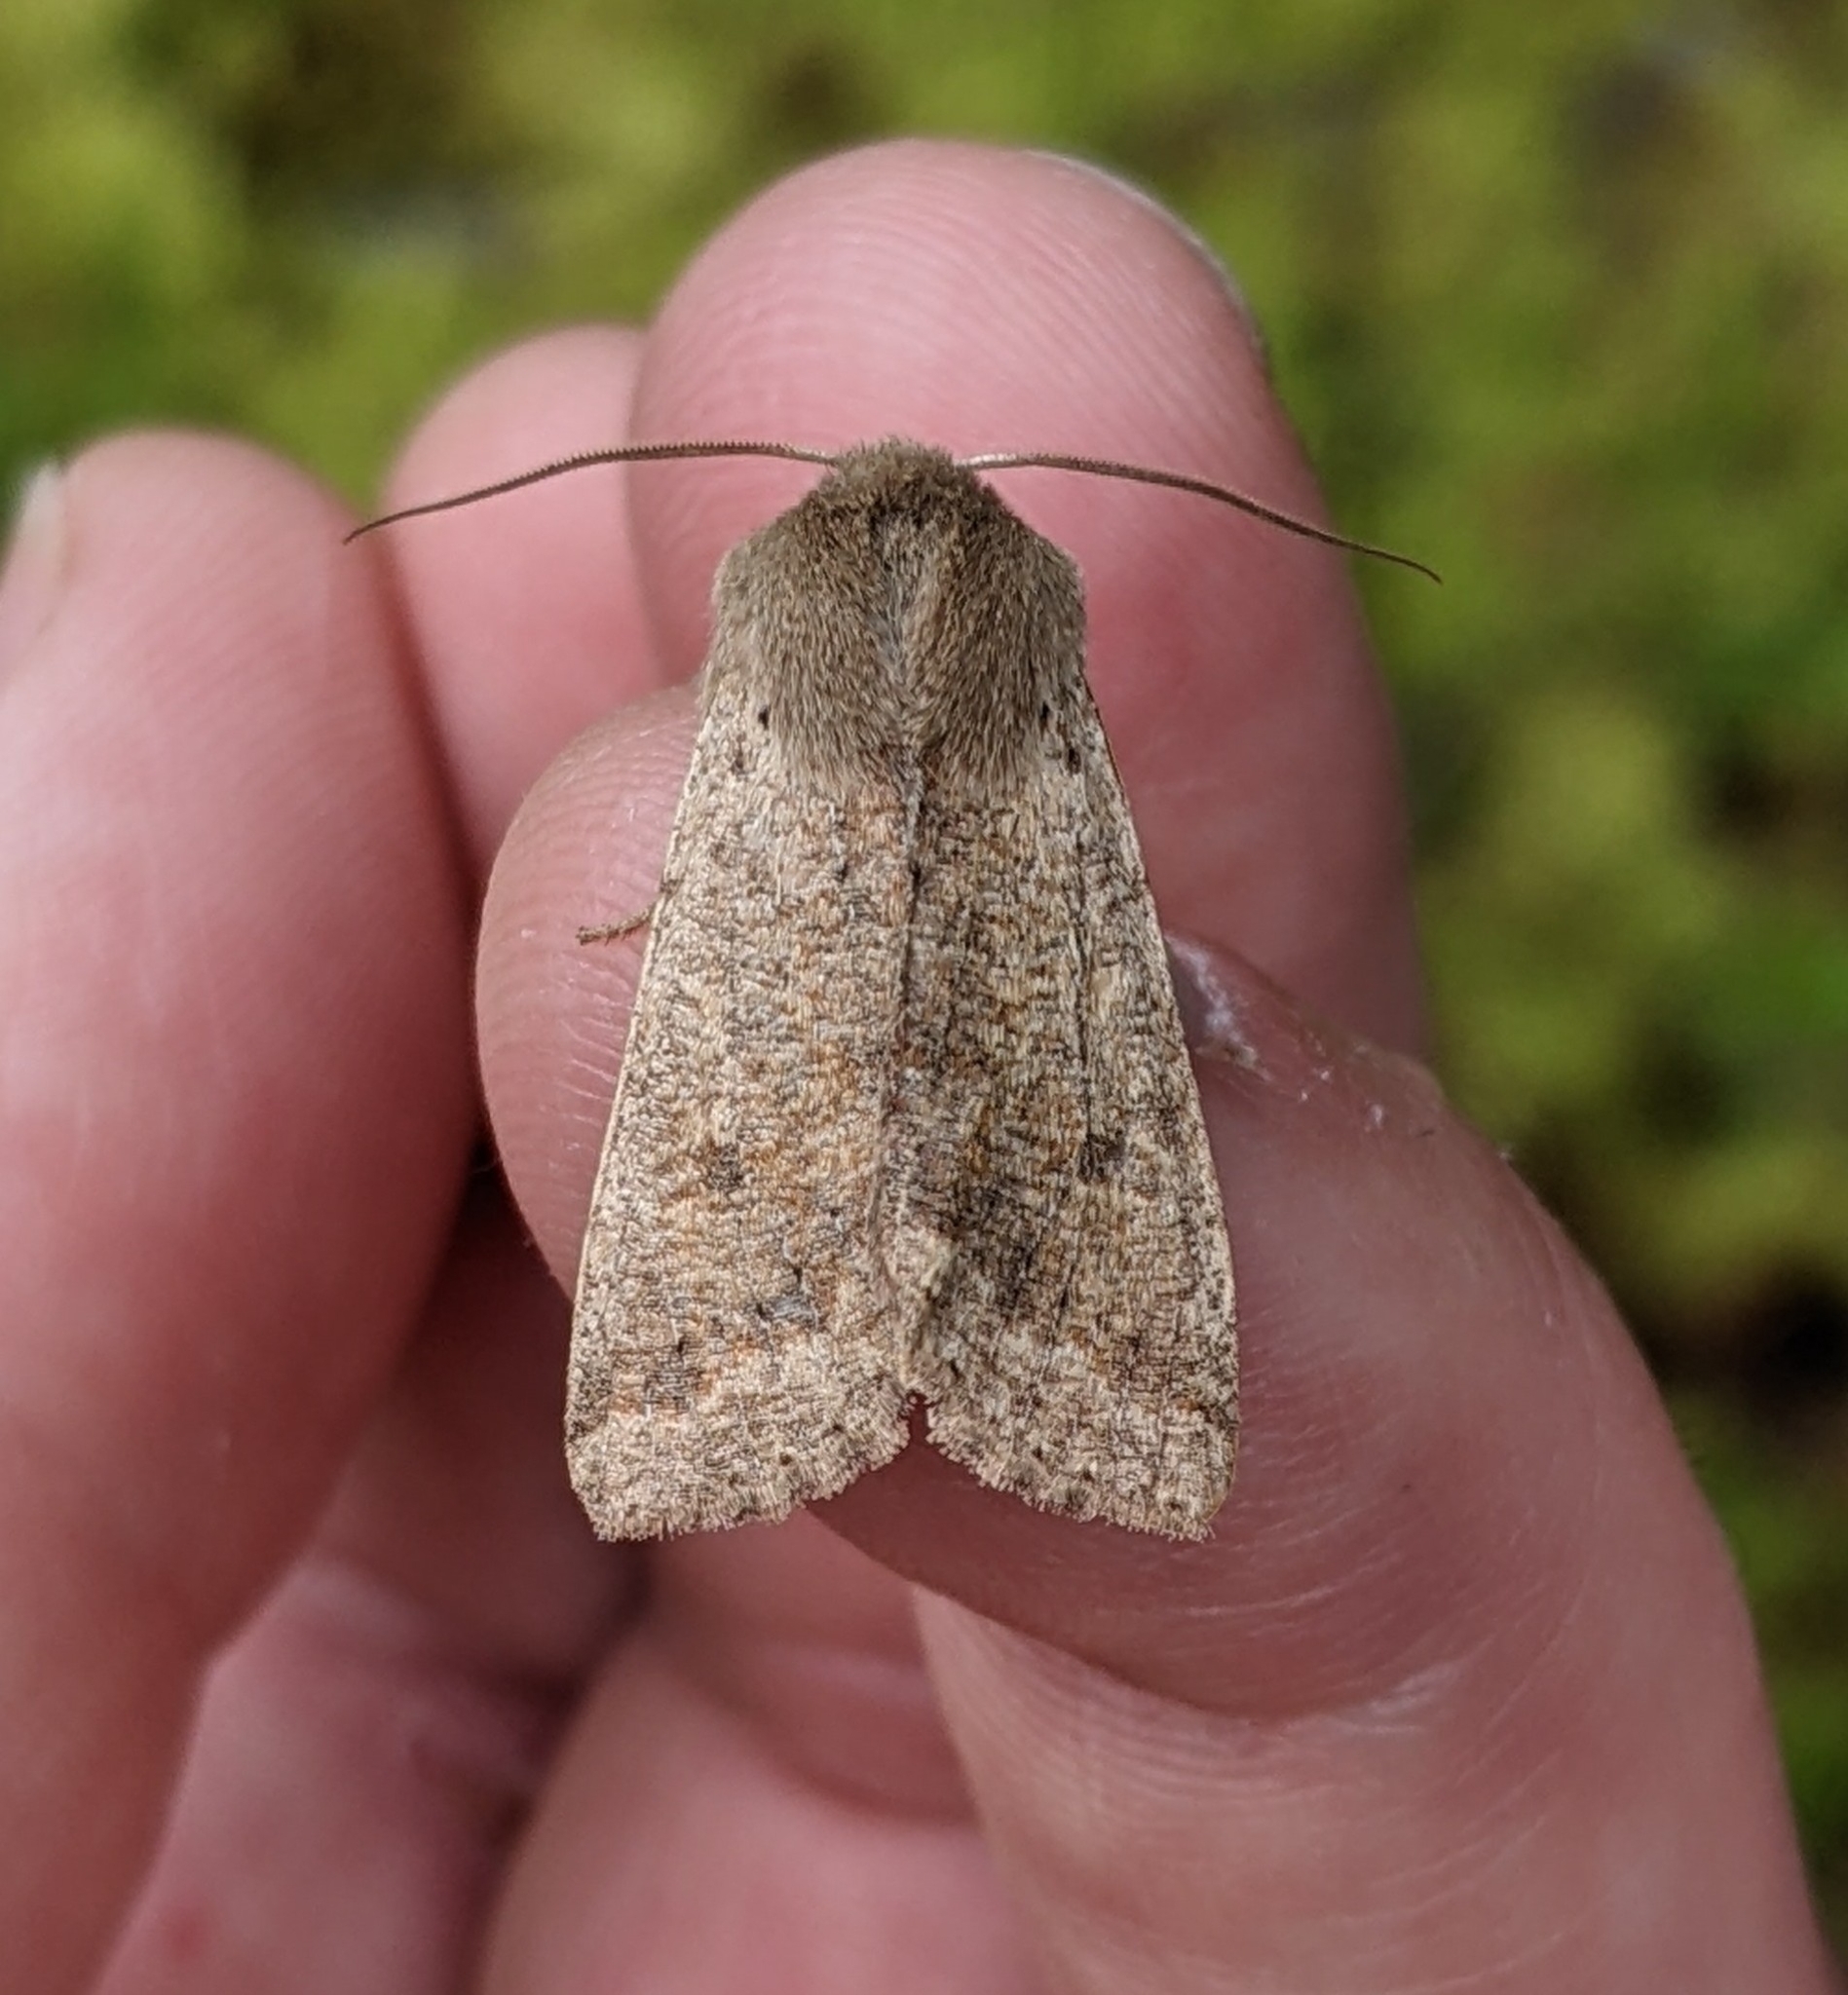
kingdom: Animalia
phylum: Arthropoda
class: Insecta
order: Lepidoptera
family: Noctuidae
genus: Orthosia
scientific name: Orthosia pacifica
